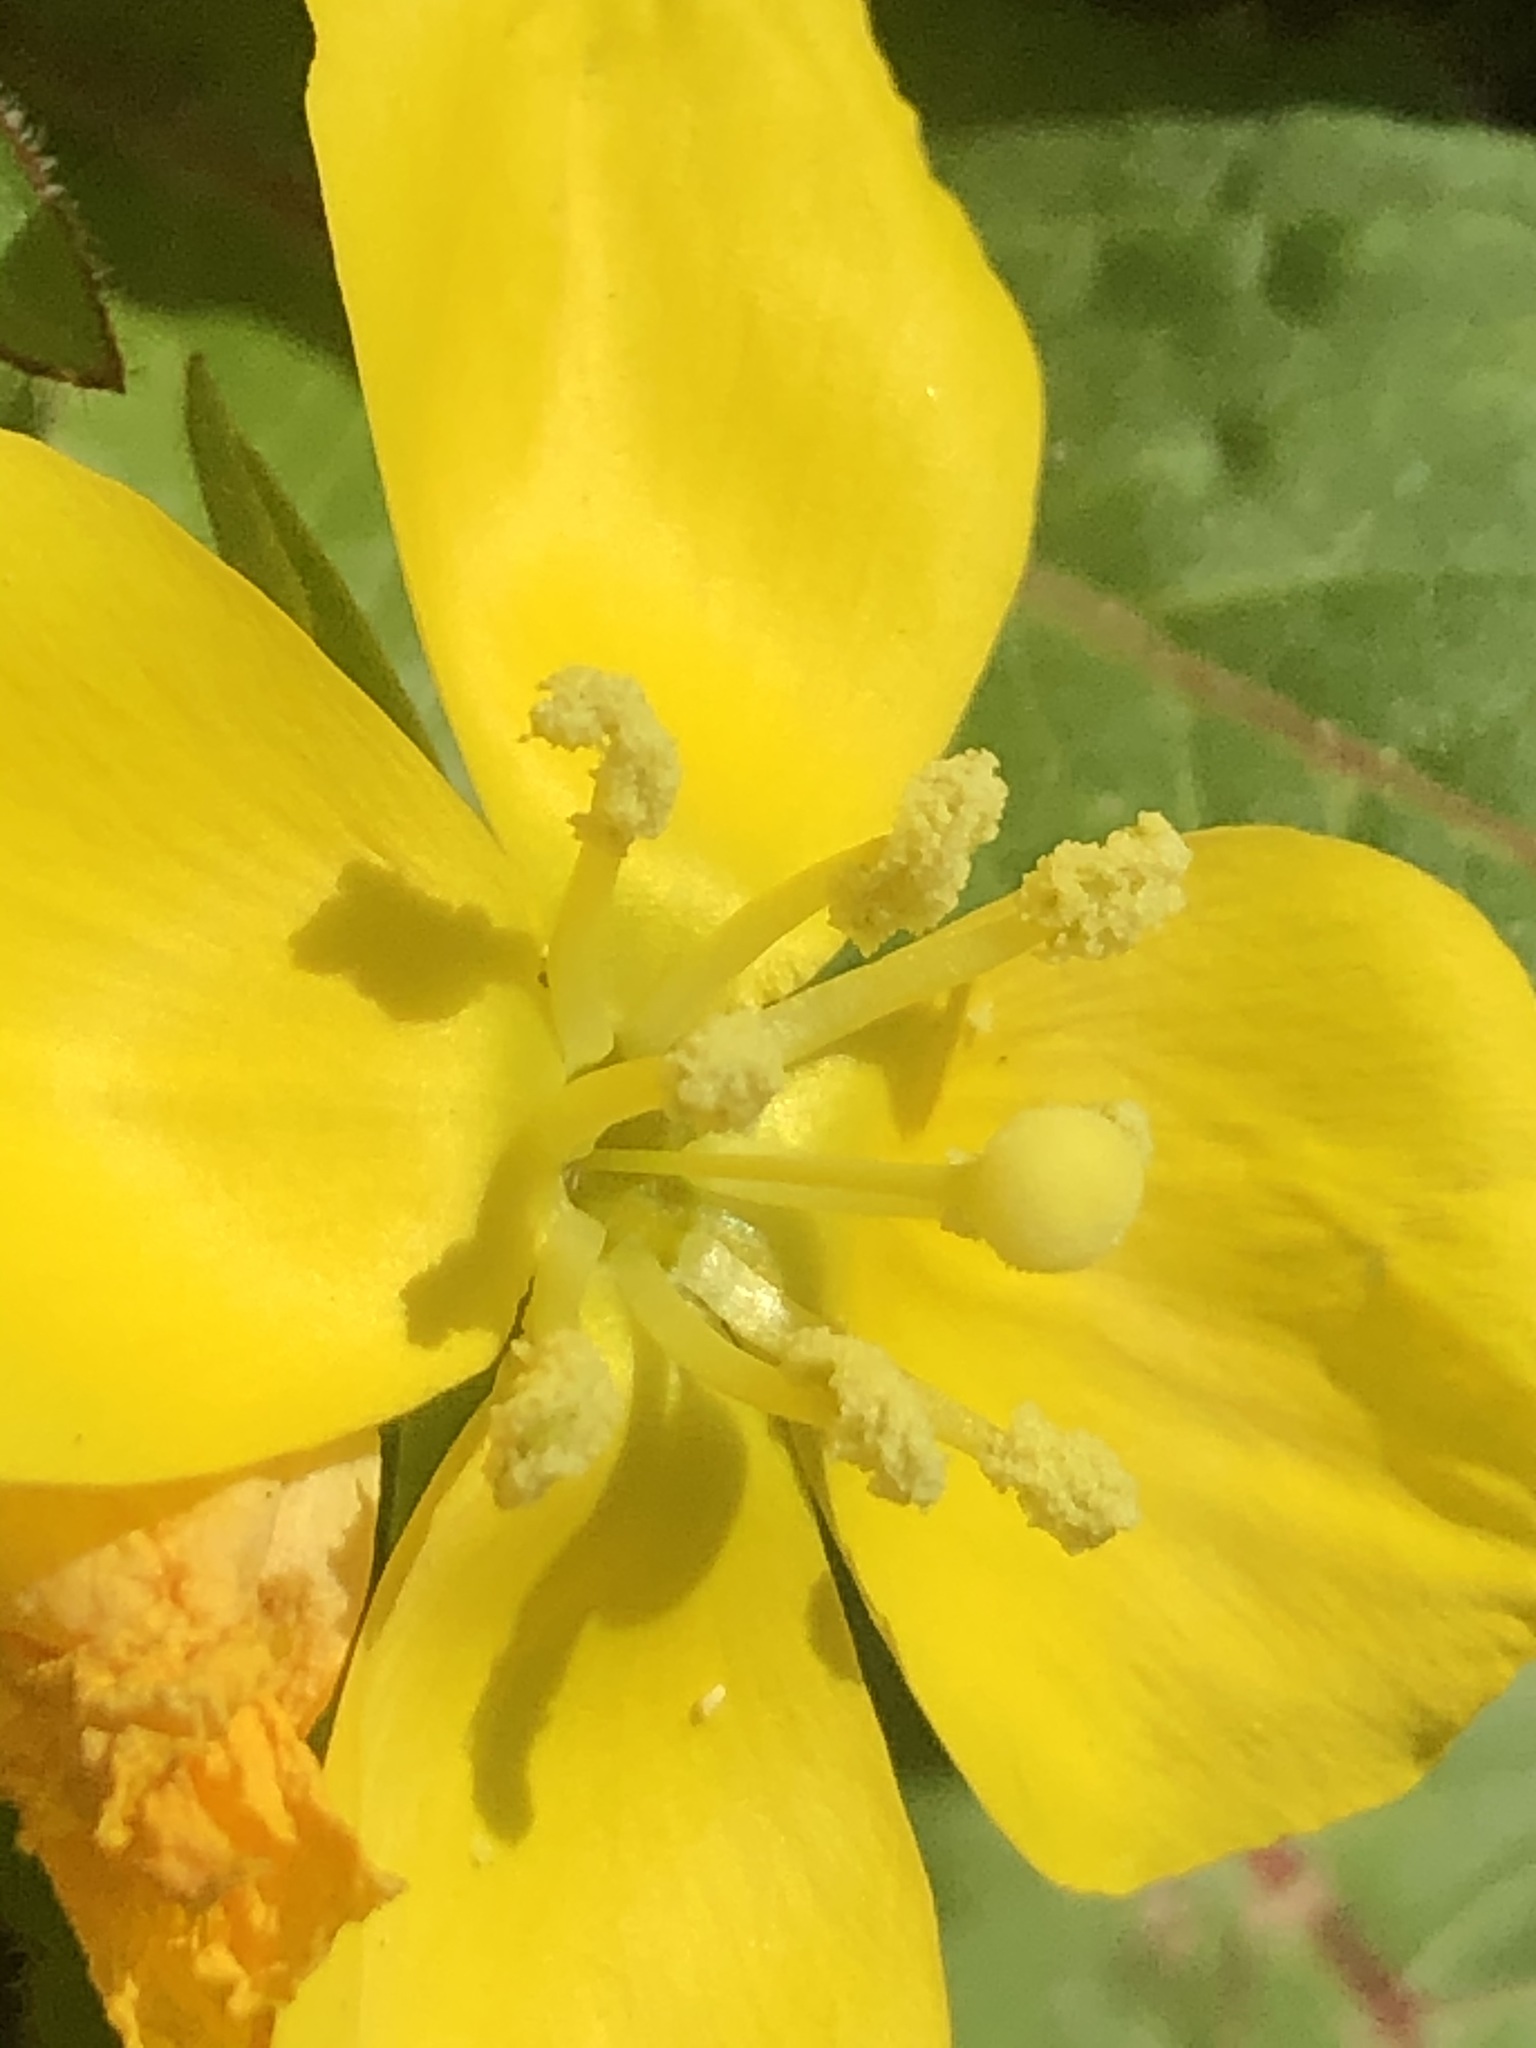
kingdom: Plantae
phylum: Tracheophyta
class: Magnoliopsida
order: Myrtales
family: Onagraceae
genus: Taraxia
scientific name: Taraxia ovata
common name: Goldeneggs
